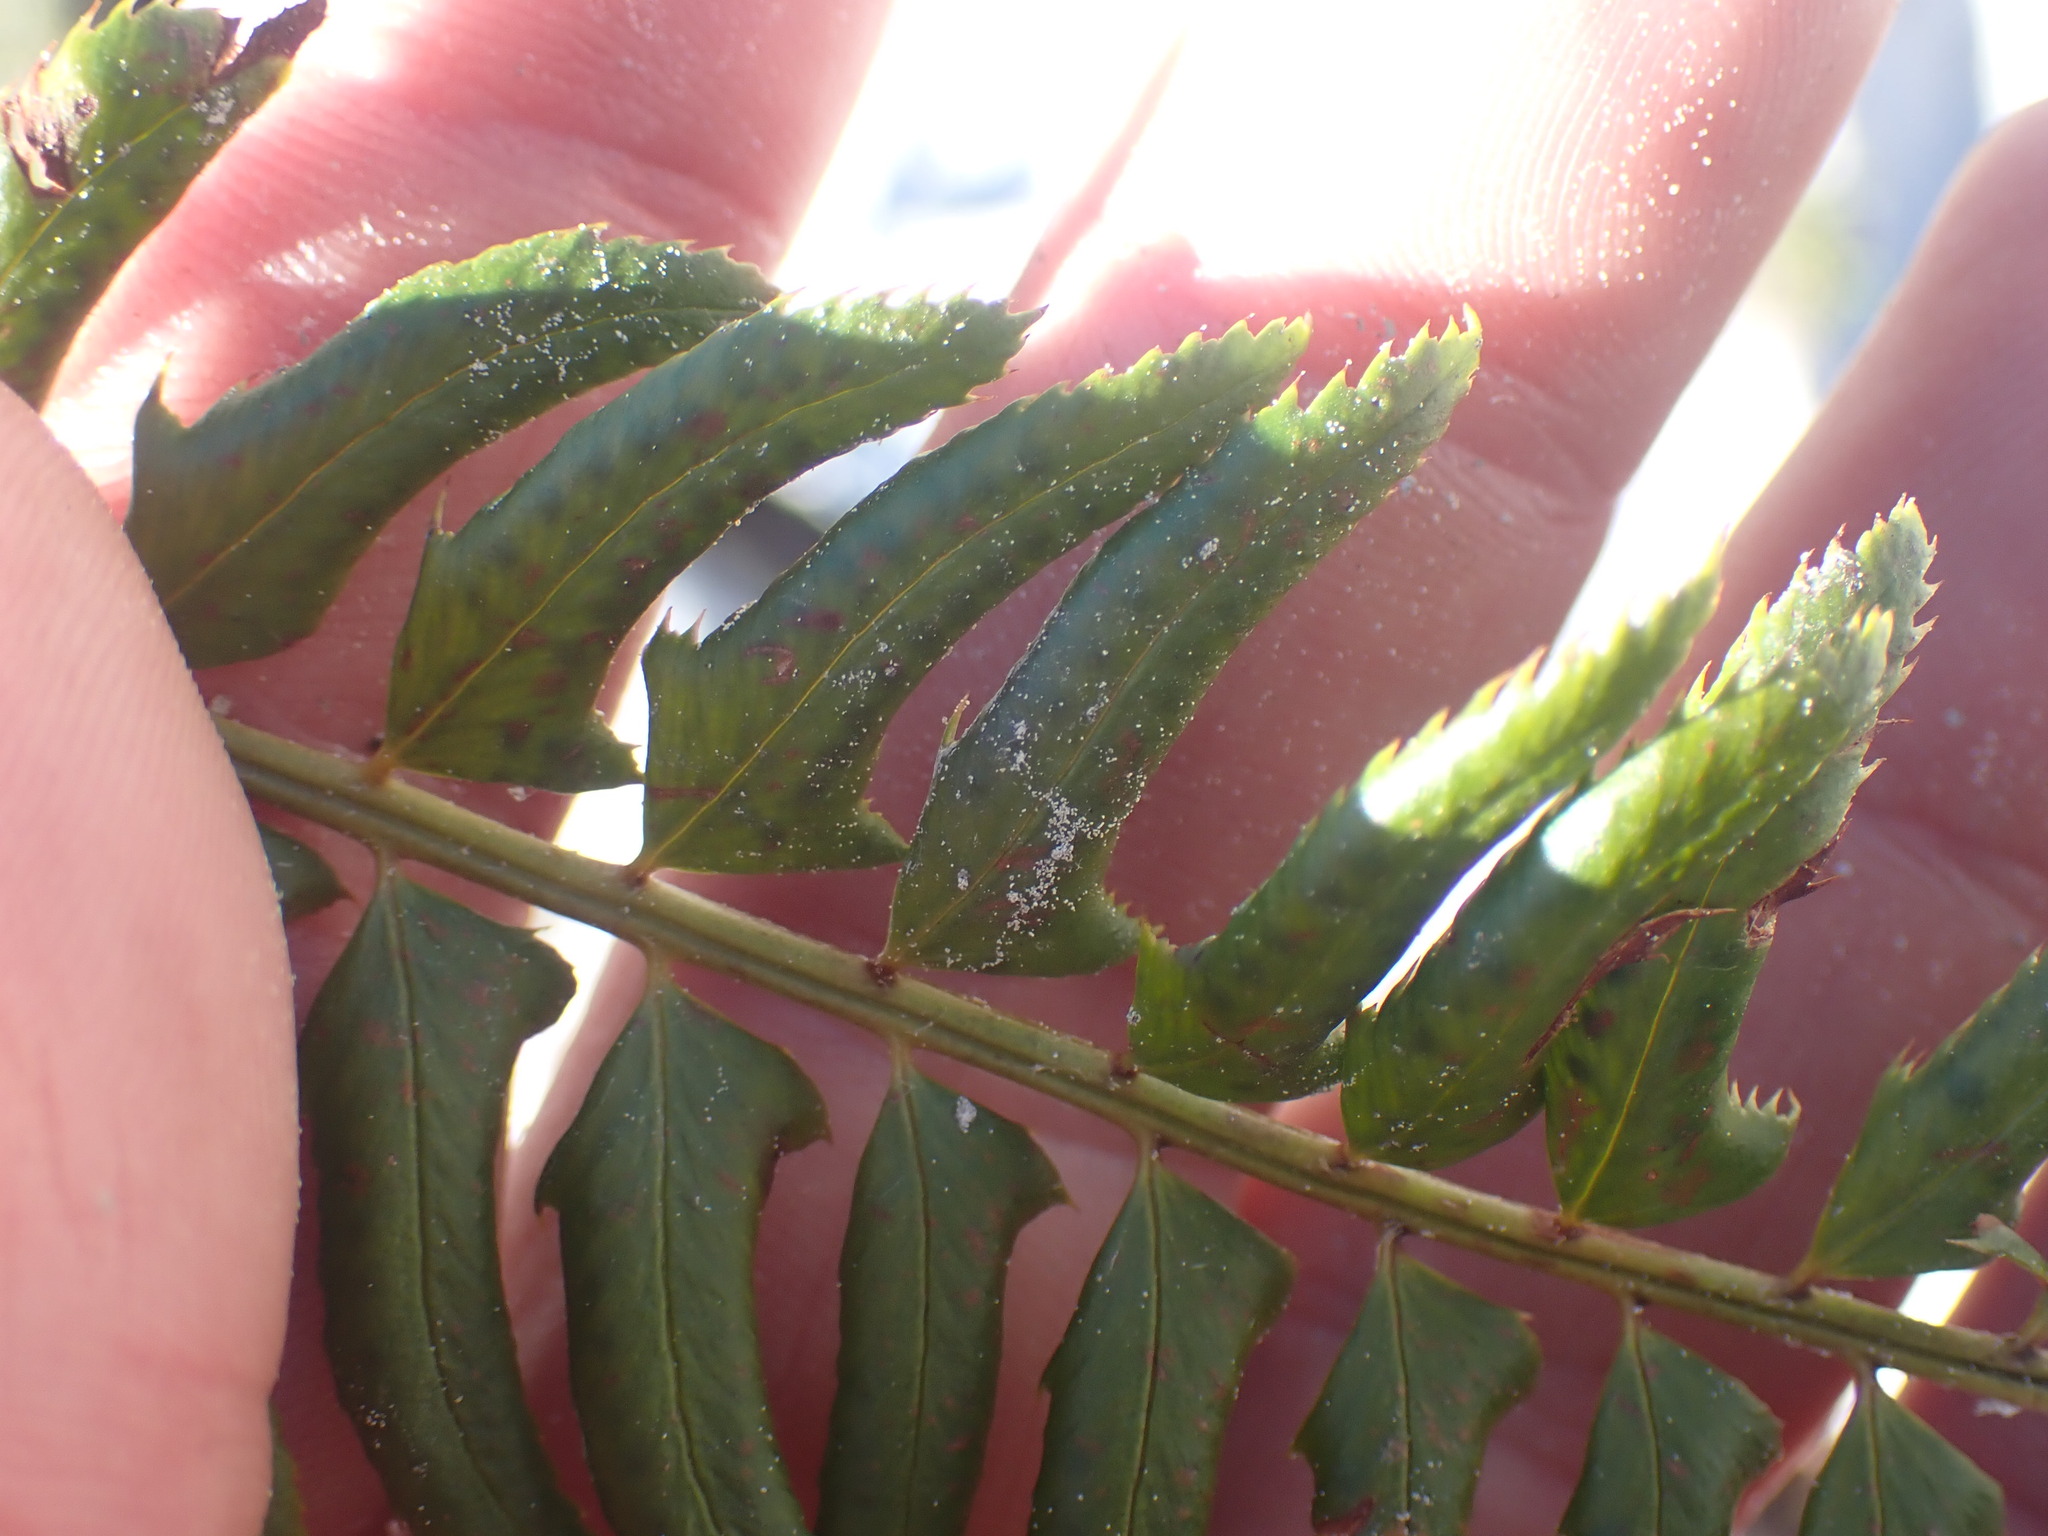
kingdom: Plantae
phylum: Tracheophyta
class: Polypodiopsida
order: Polypodiales
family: Dryopteridaceae
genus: Polystichum
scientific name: Polystichum lonchitis
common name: Holly fern
